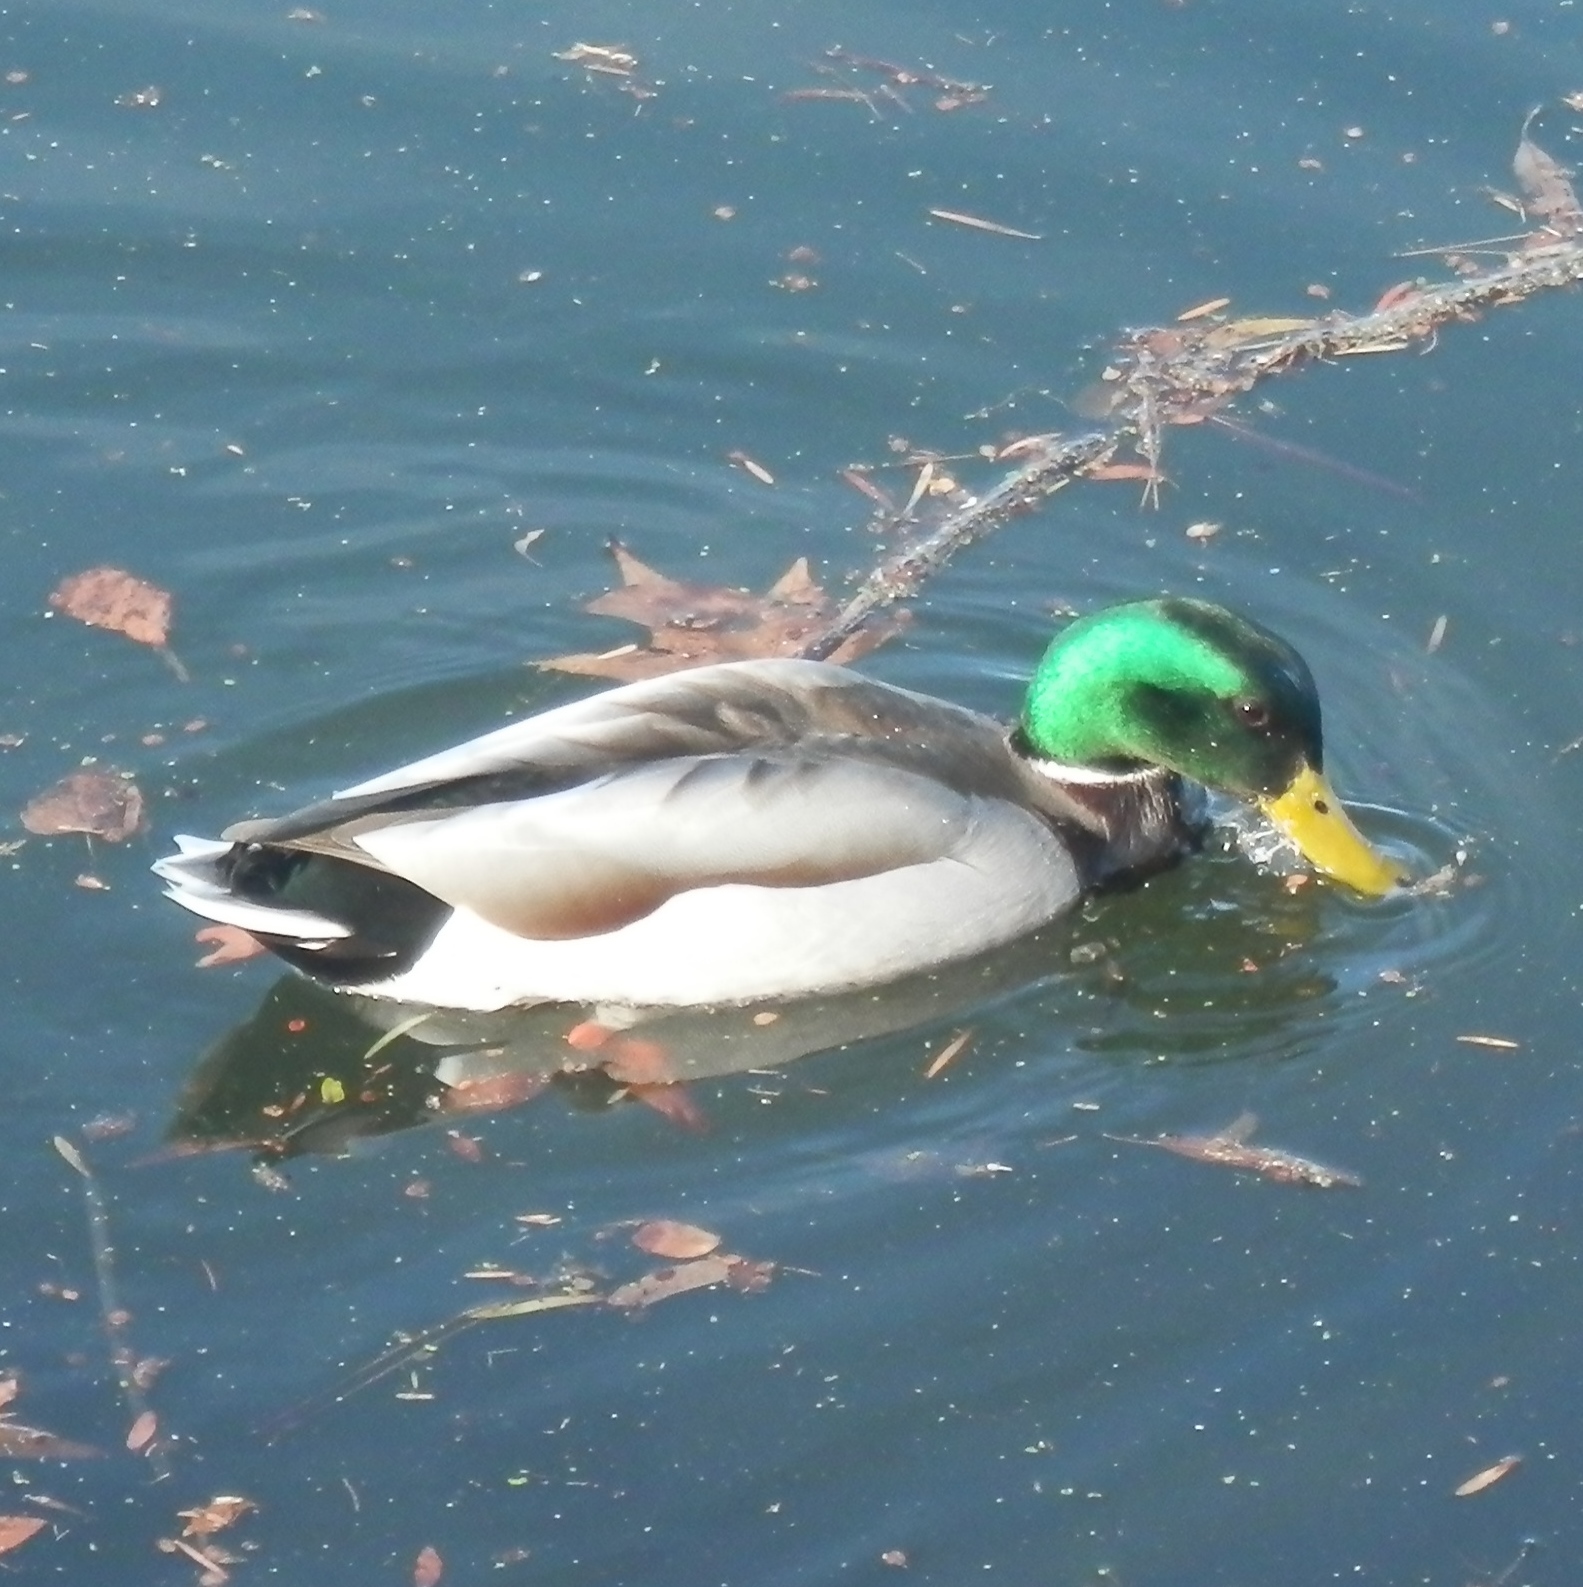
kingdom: Animalia
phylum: Chordata
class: Aves
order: Anseriformes
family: Anatidae
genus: Anas
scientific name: Anas platyrhynchos
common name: Mallard
